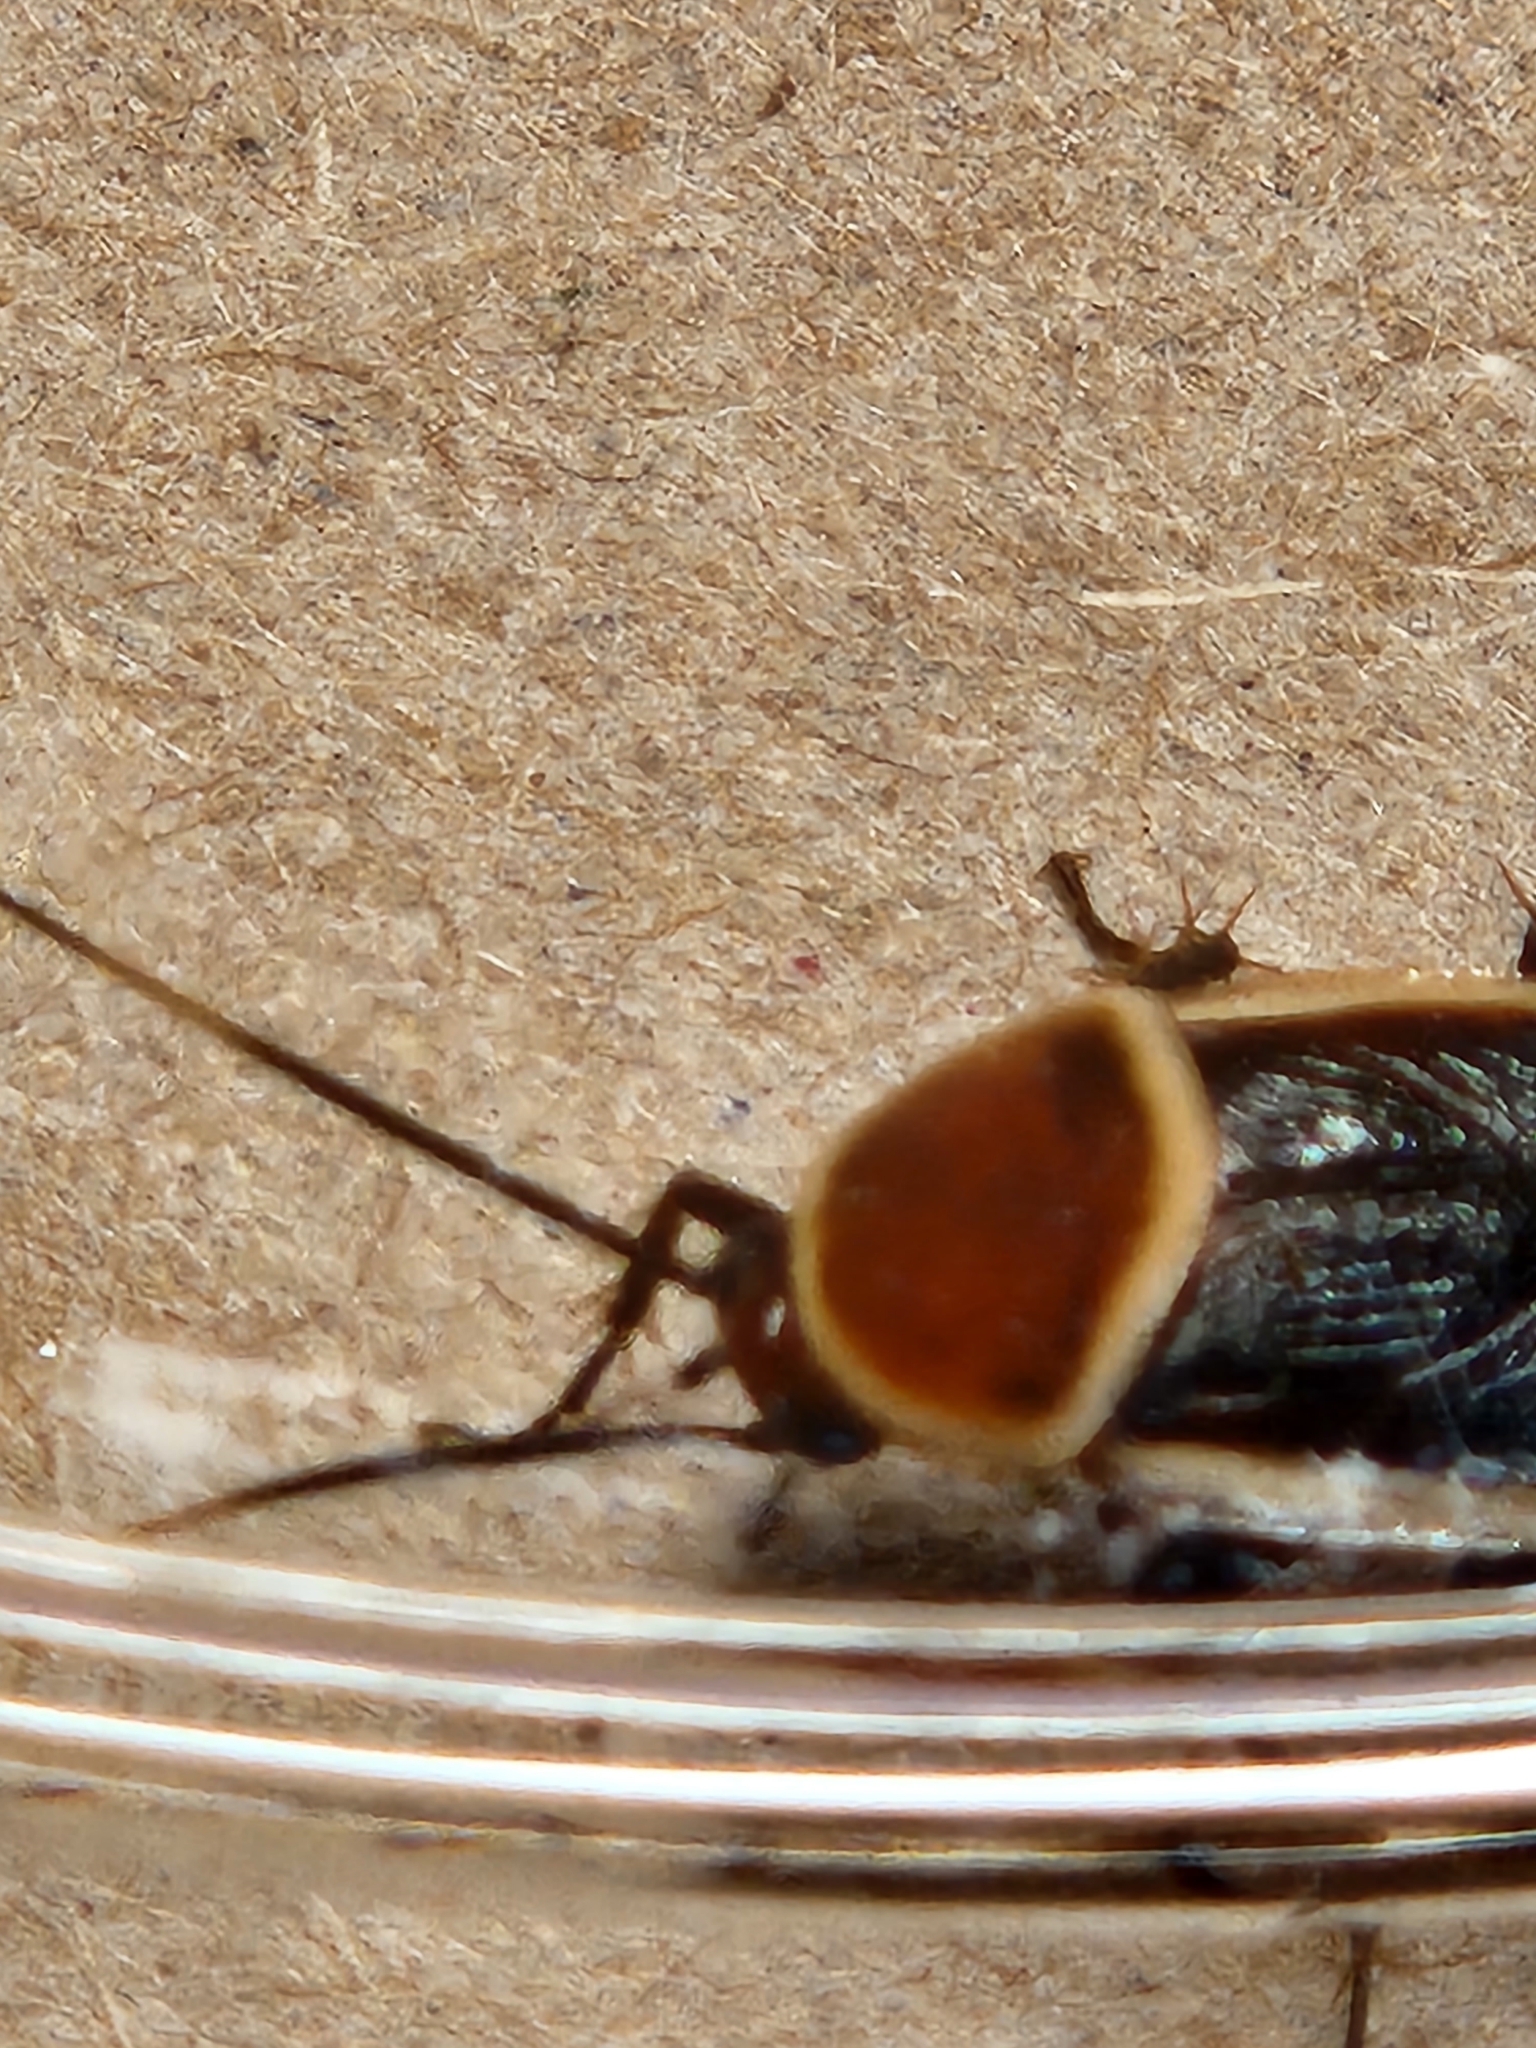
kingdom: Animalia
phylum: Arthropoda
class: Insecta
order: Blattodea
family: Ectobiidae
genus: Pseudomops
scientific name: Pseudomops septentrionalis
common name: Pale-bordered field cockroach
